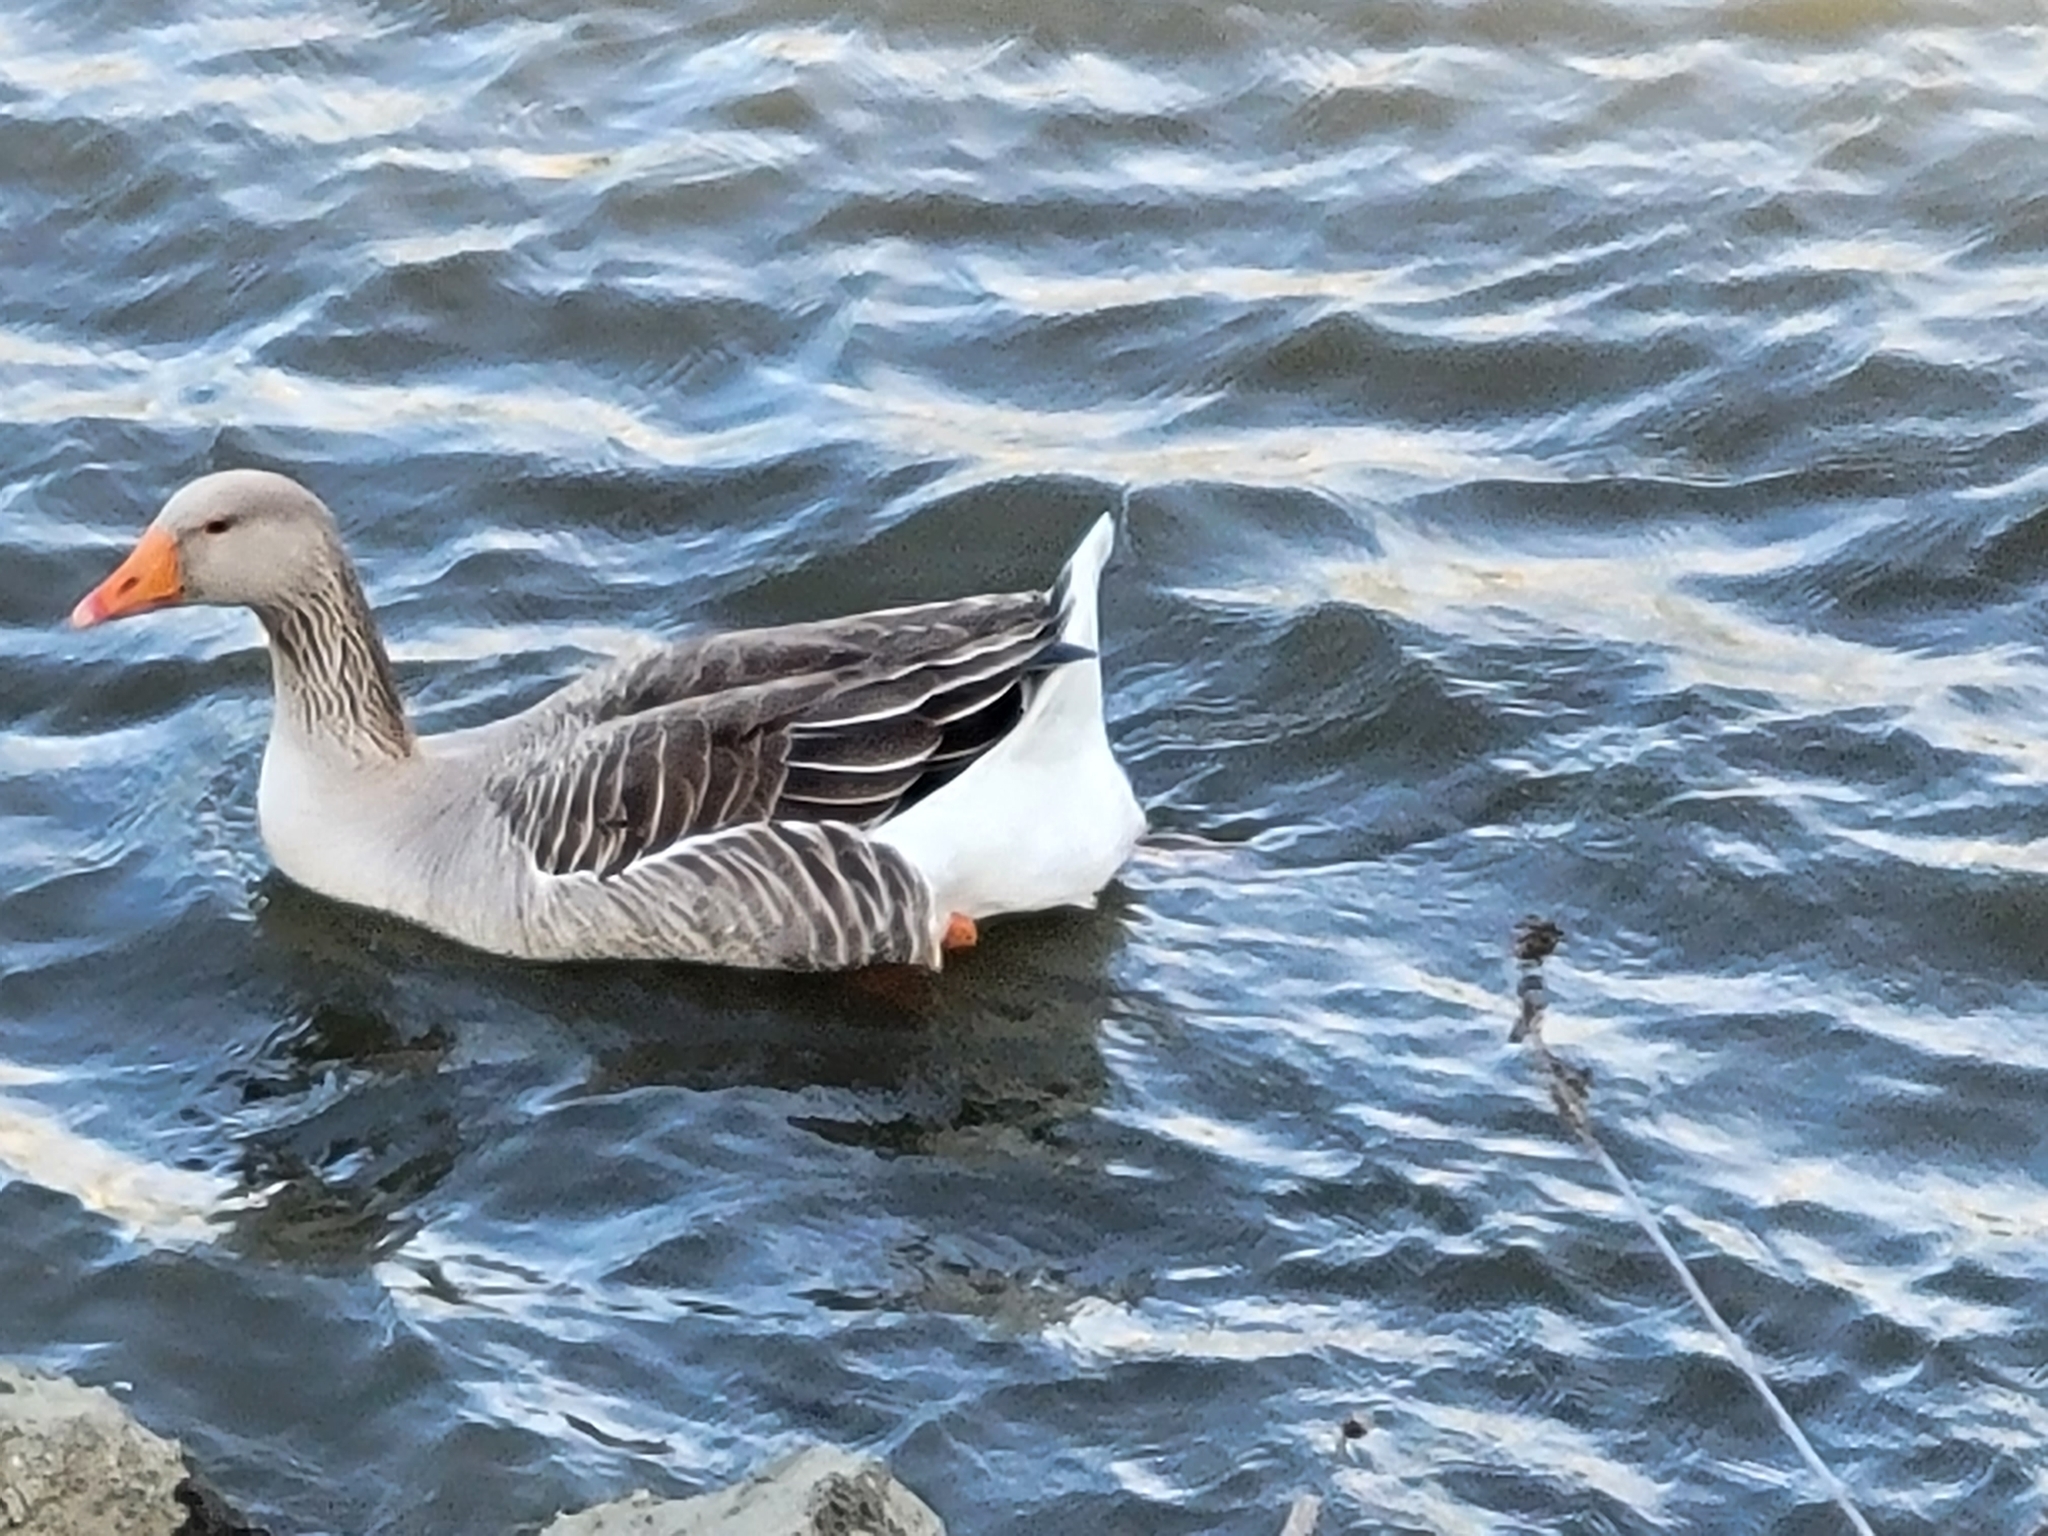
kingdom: Animalia
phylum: Chordata
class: Aves
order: Anseriformes
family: Anatidae
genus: Anser
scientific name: Anser anser
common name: Greylag goose
